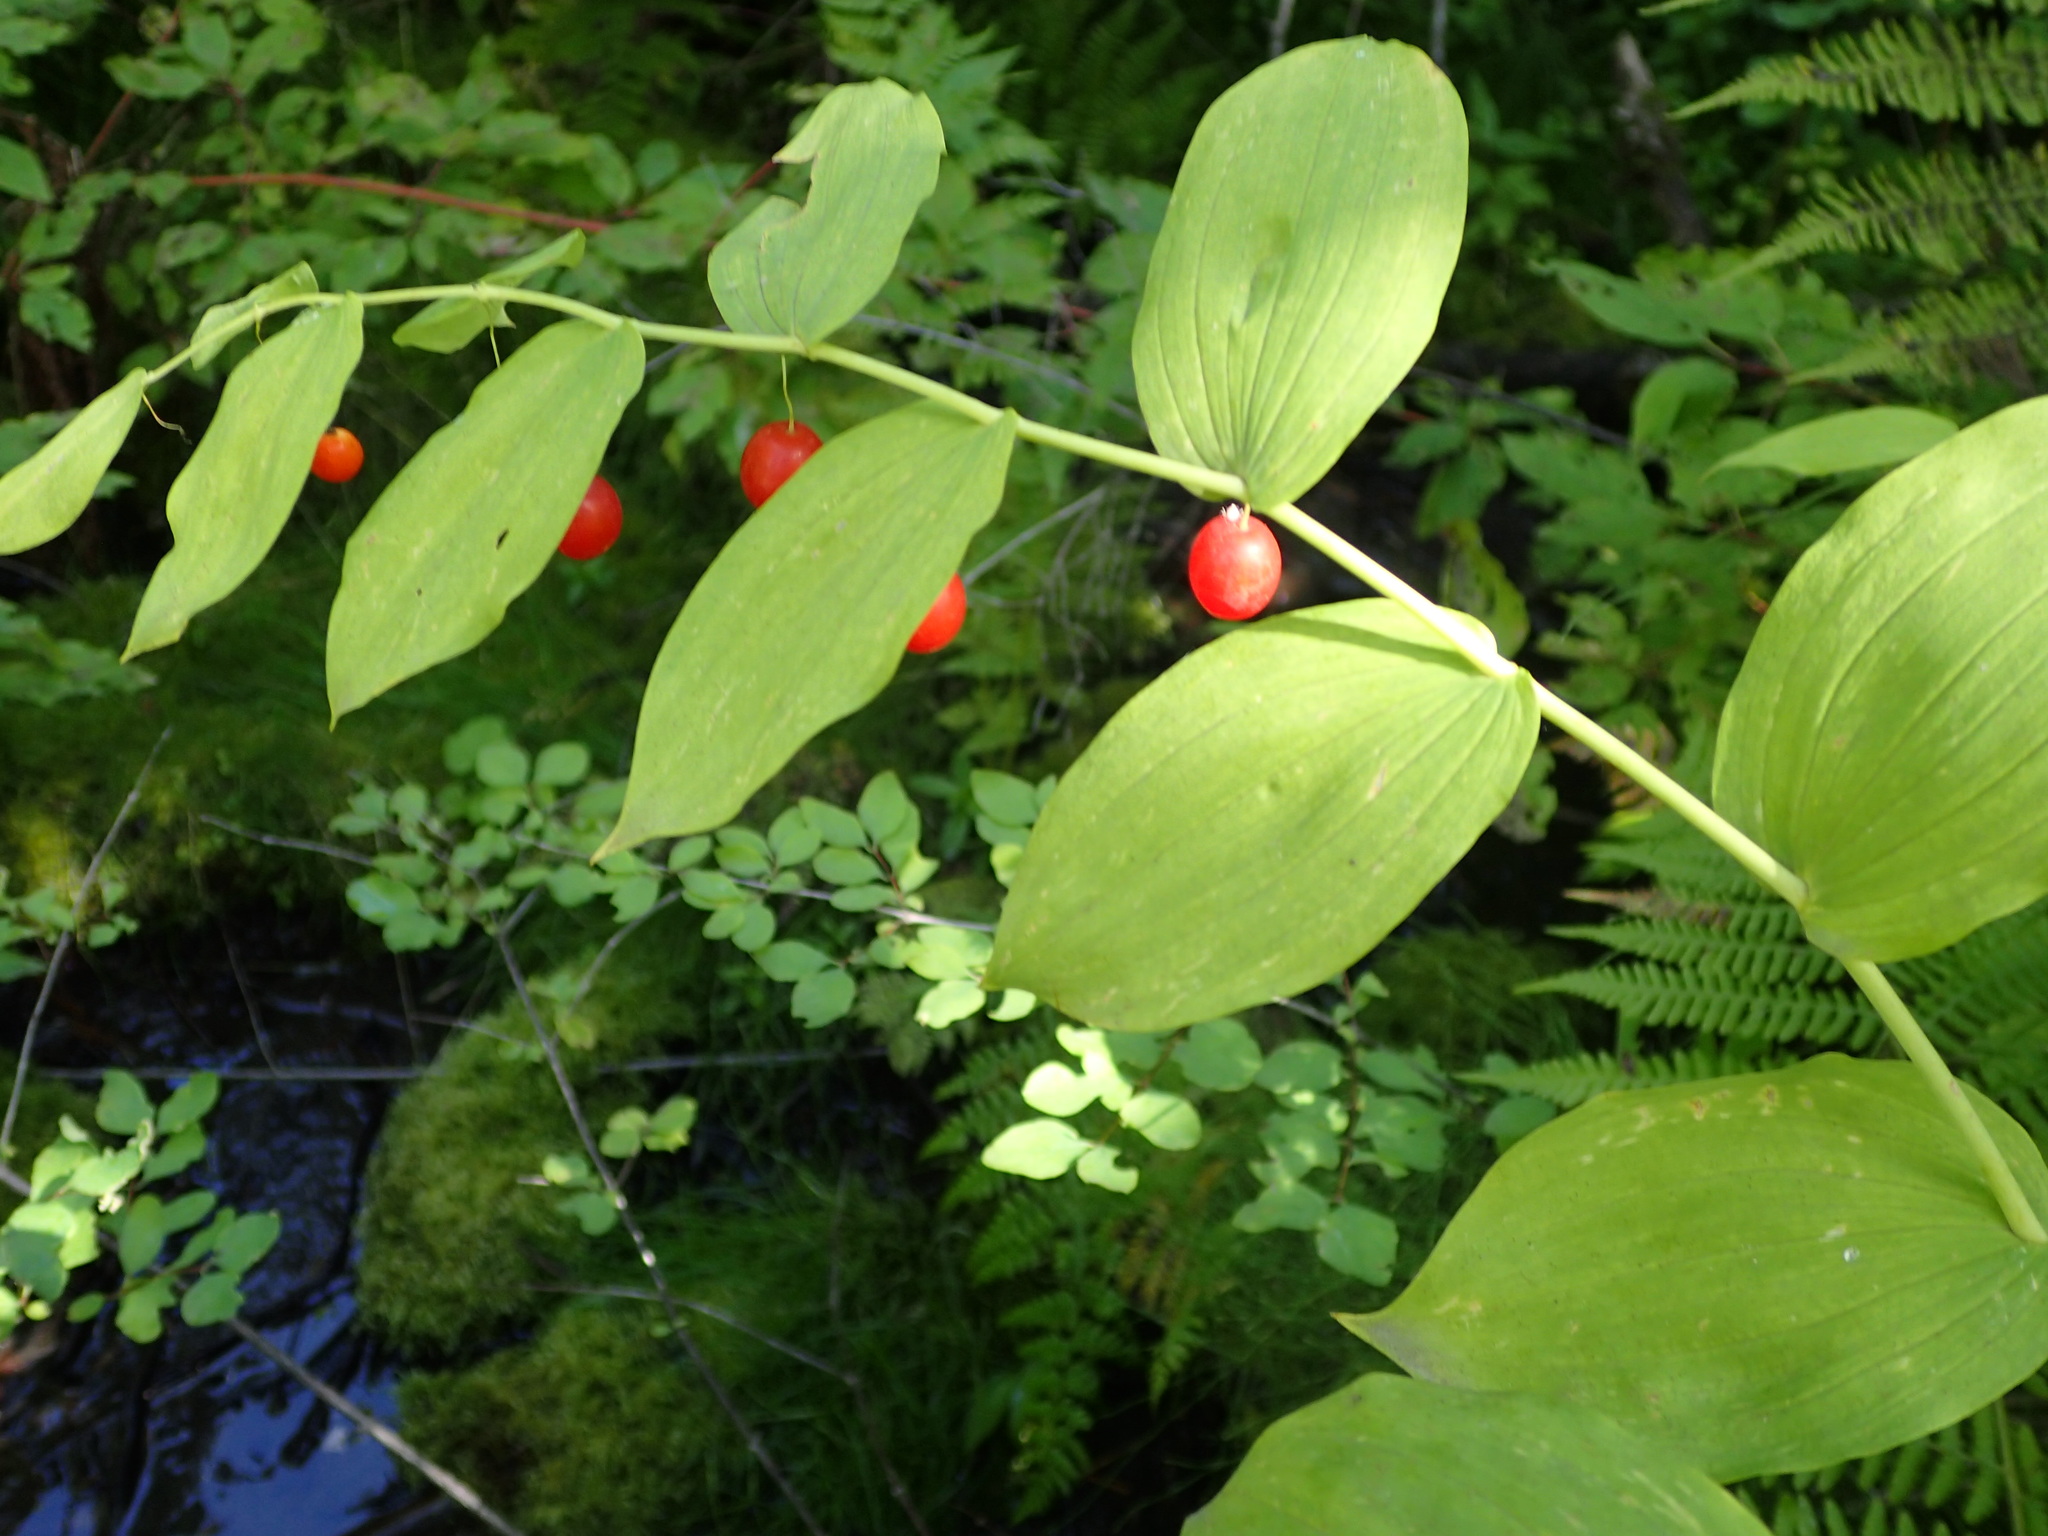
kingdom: Plantae
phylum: Tracheophyta
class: Liliopsida
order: Liliales
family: Liliaceae
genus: Streptopus
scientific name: Streptopus amplexifolius
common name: Clasp twisted stalk
